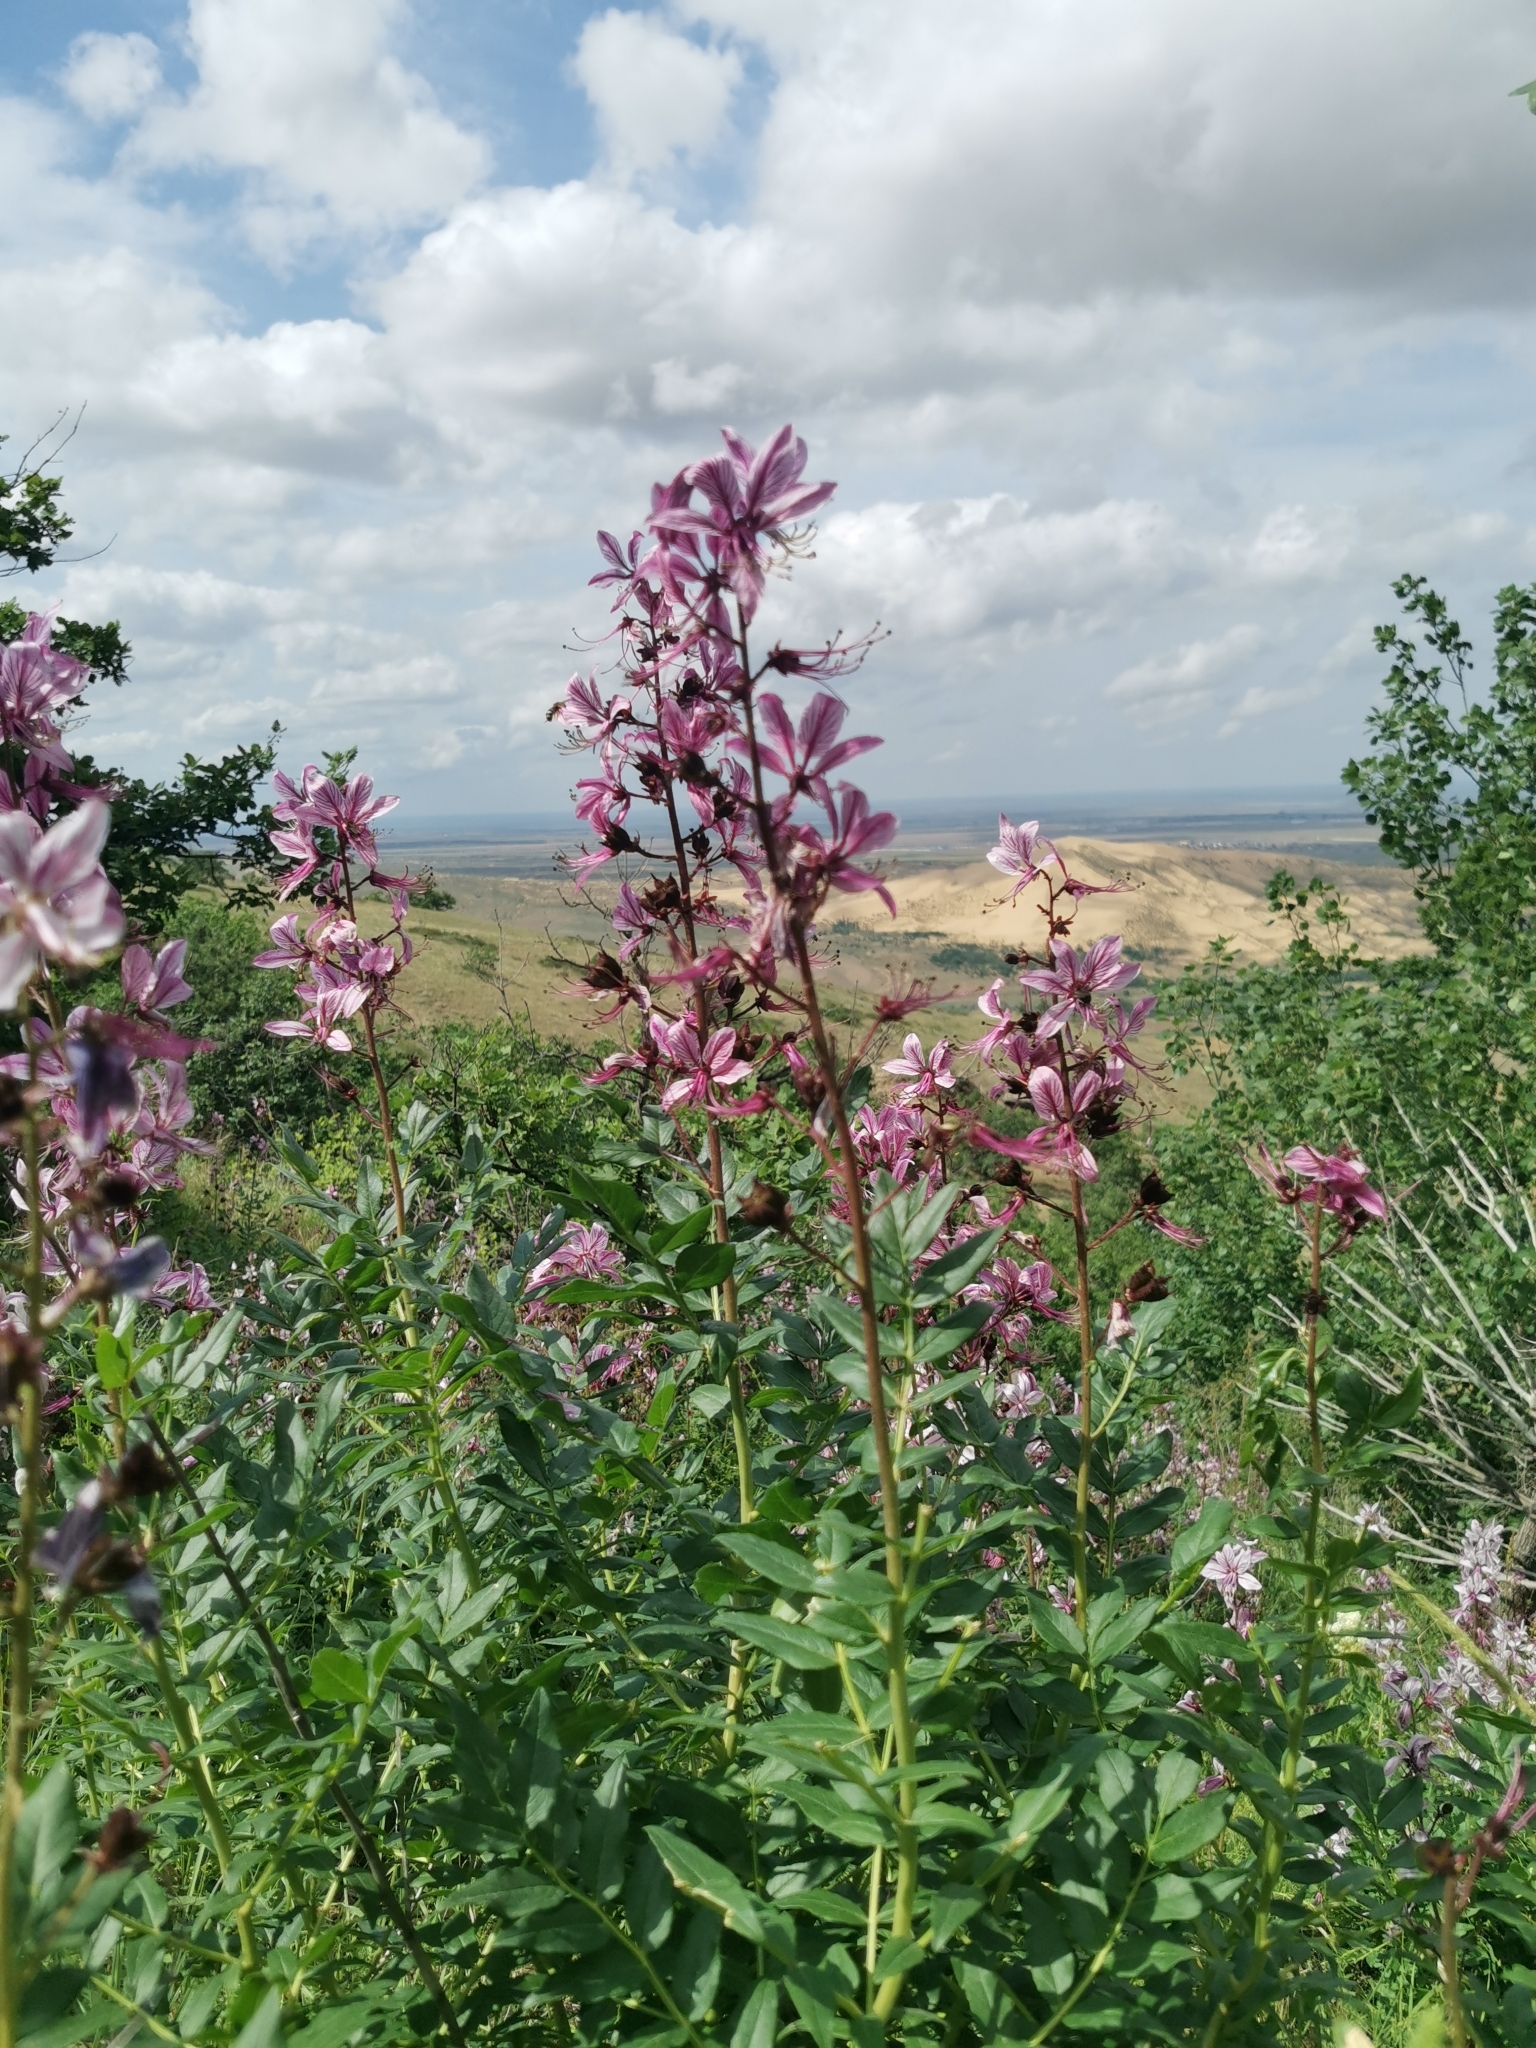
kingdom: Plantae
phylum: Tracheophyta
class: Magnoliopsida
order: Sapindales
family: Rutaceae
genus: Dictamnus
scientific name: Dictamnus albus
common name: Gasplant
